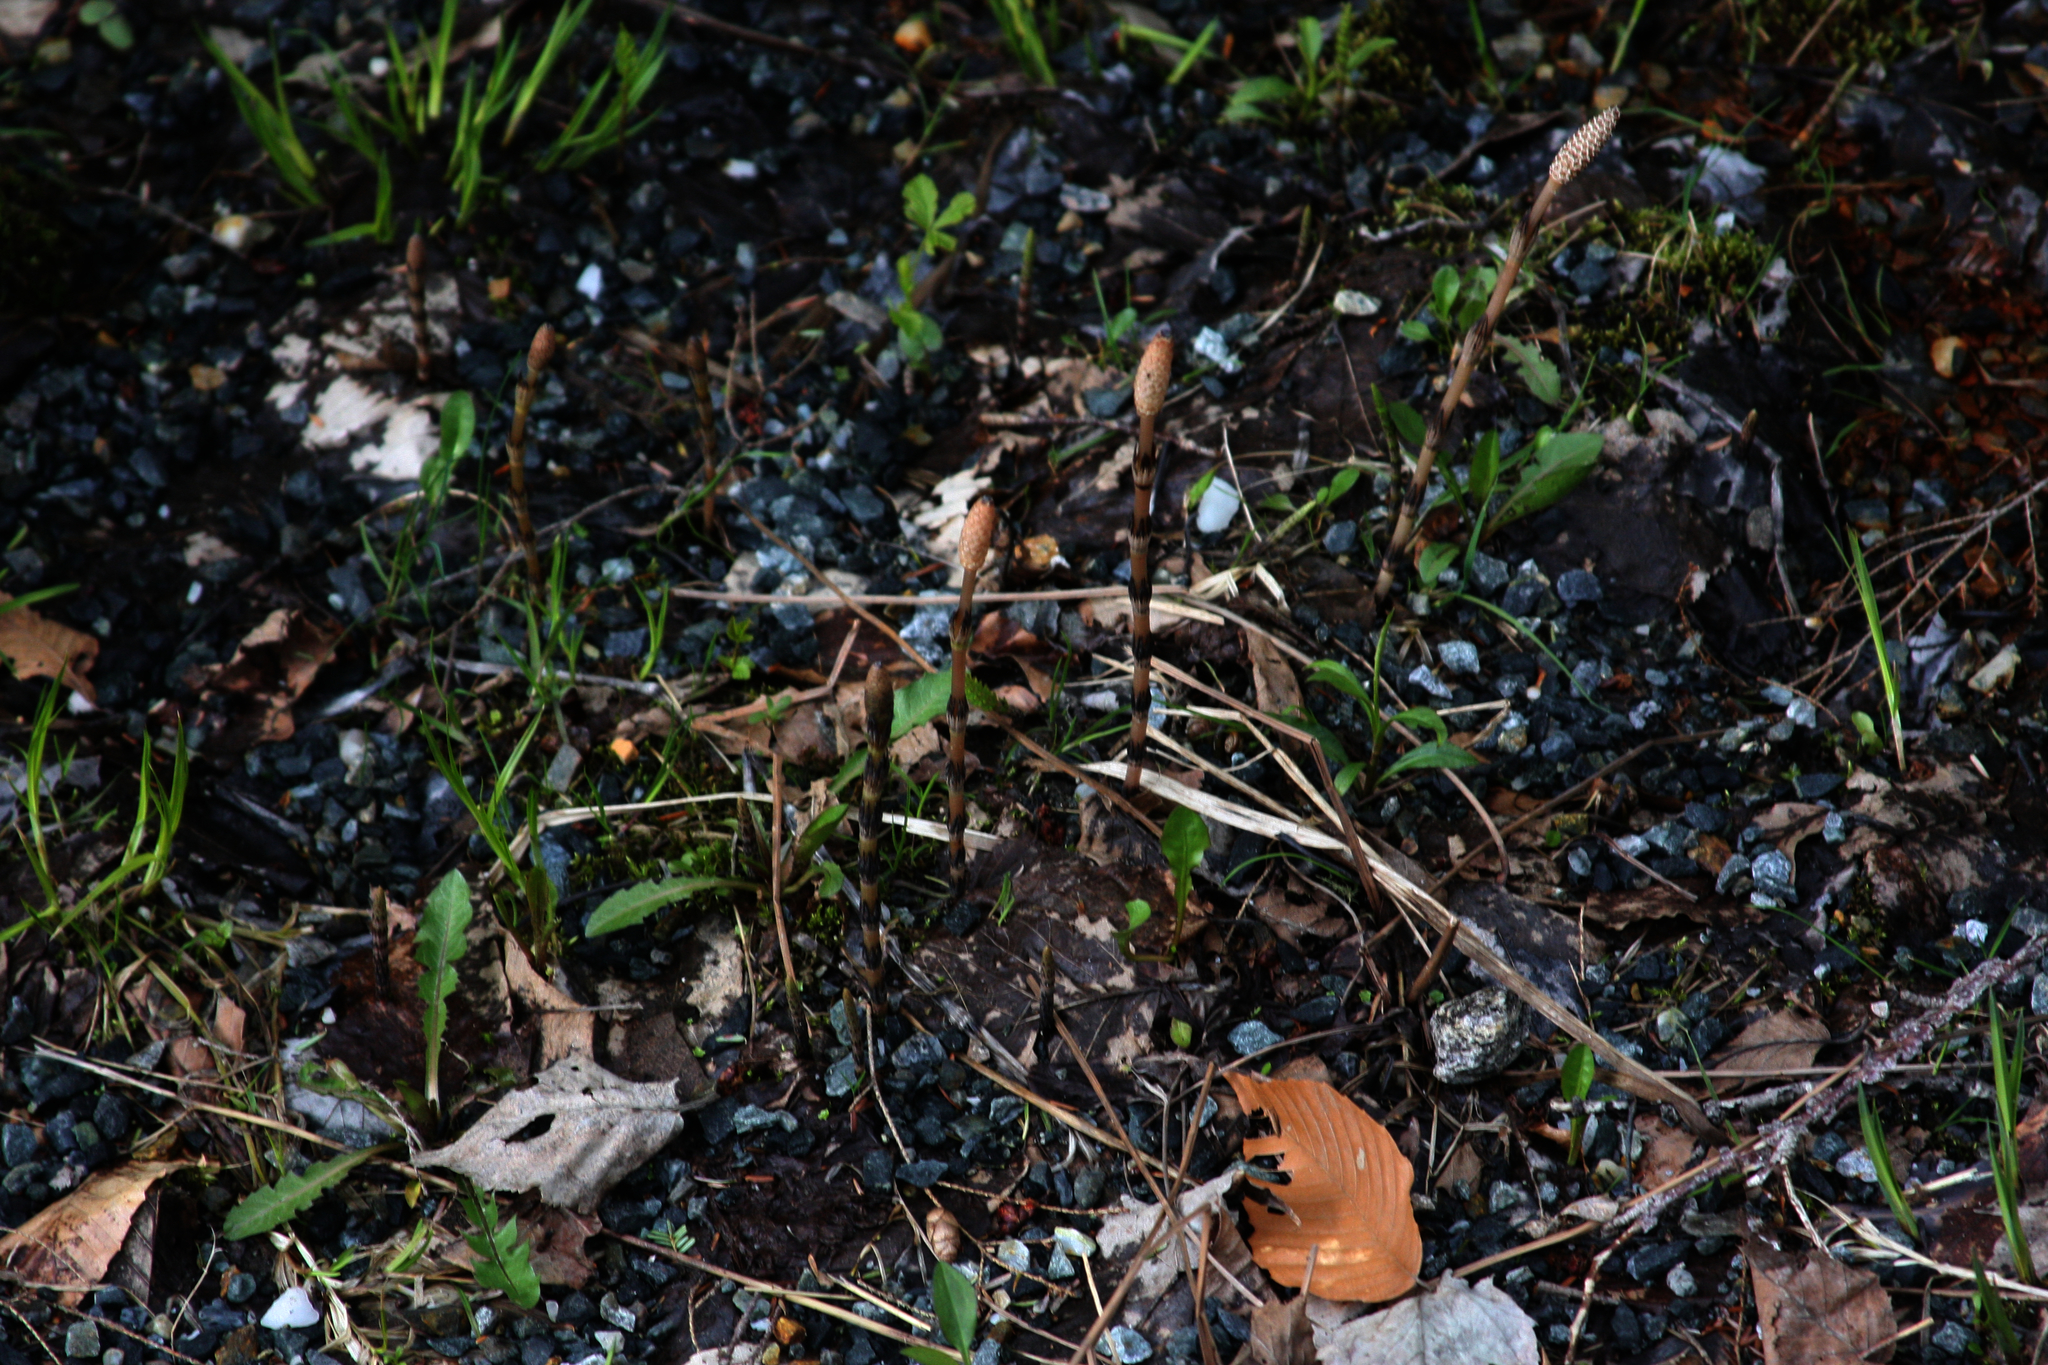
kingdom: Plantae
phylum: Tracheophyta
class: Polypodiopsida
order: Equisetales
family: Equisetaceae
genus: Equisetum
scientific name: Equisetum arvense
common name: Field horsetail
